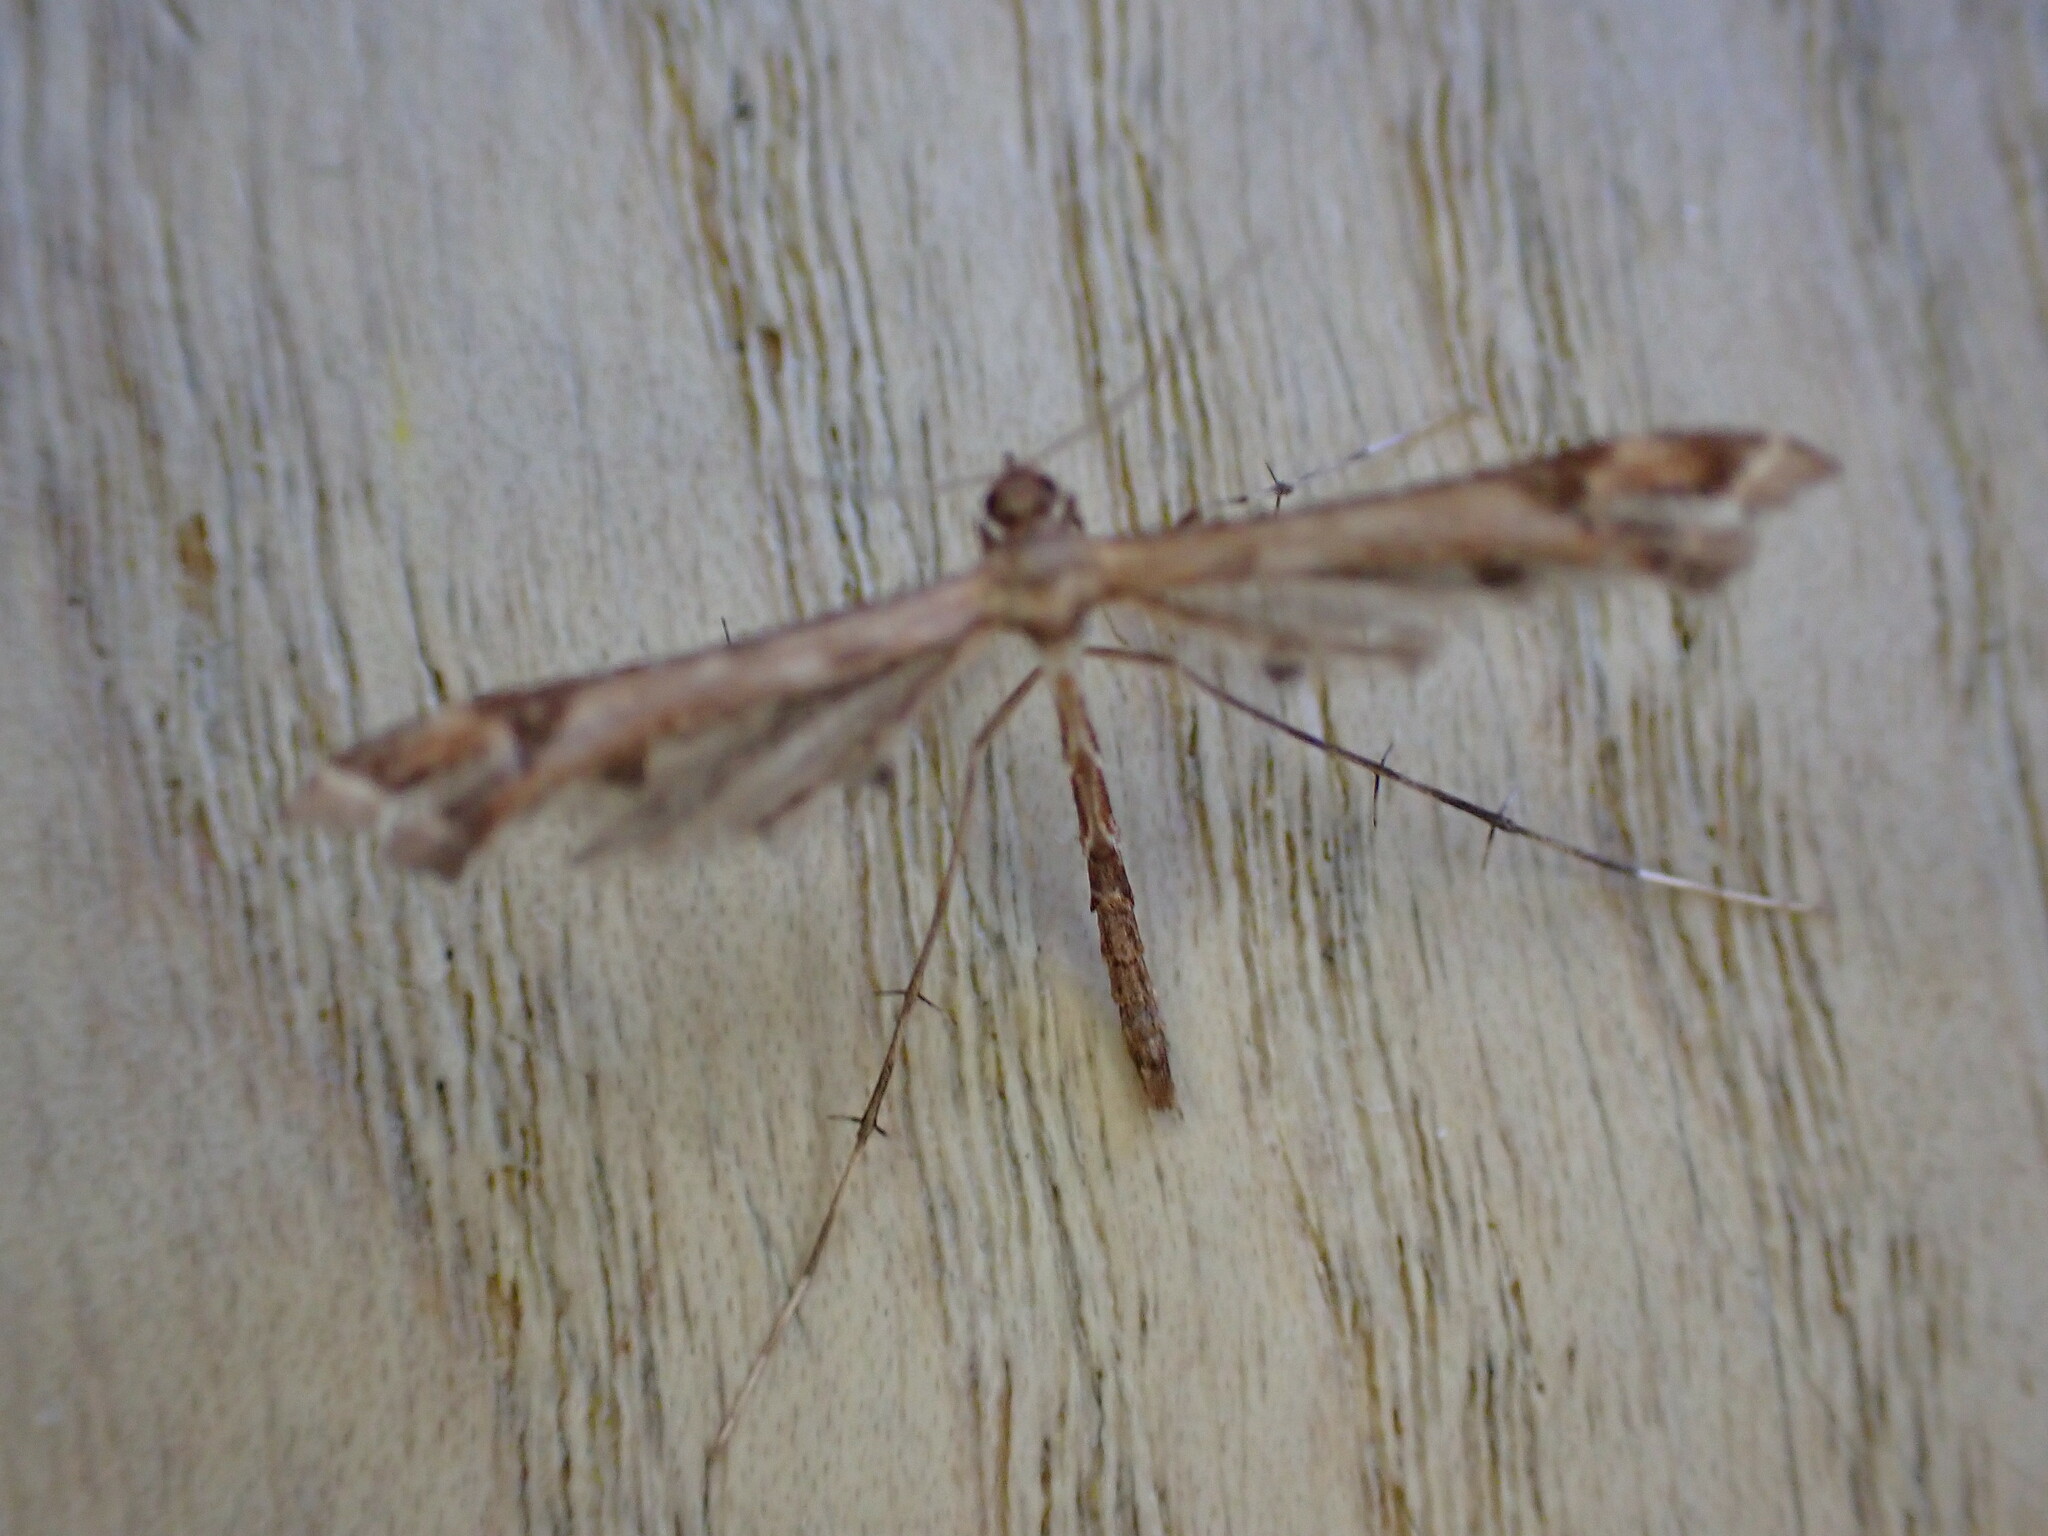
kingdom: Animalia
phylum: Arthropoda
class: Insecta
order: Lepidoptera
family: Pterophoridae
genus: Amblyptilia
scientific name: Amblyptilia acanthadactyla
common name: Beautiful plume
